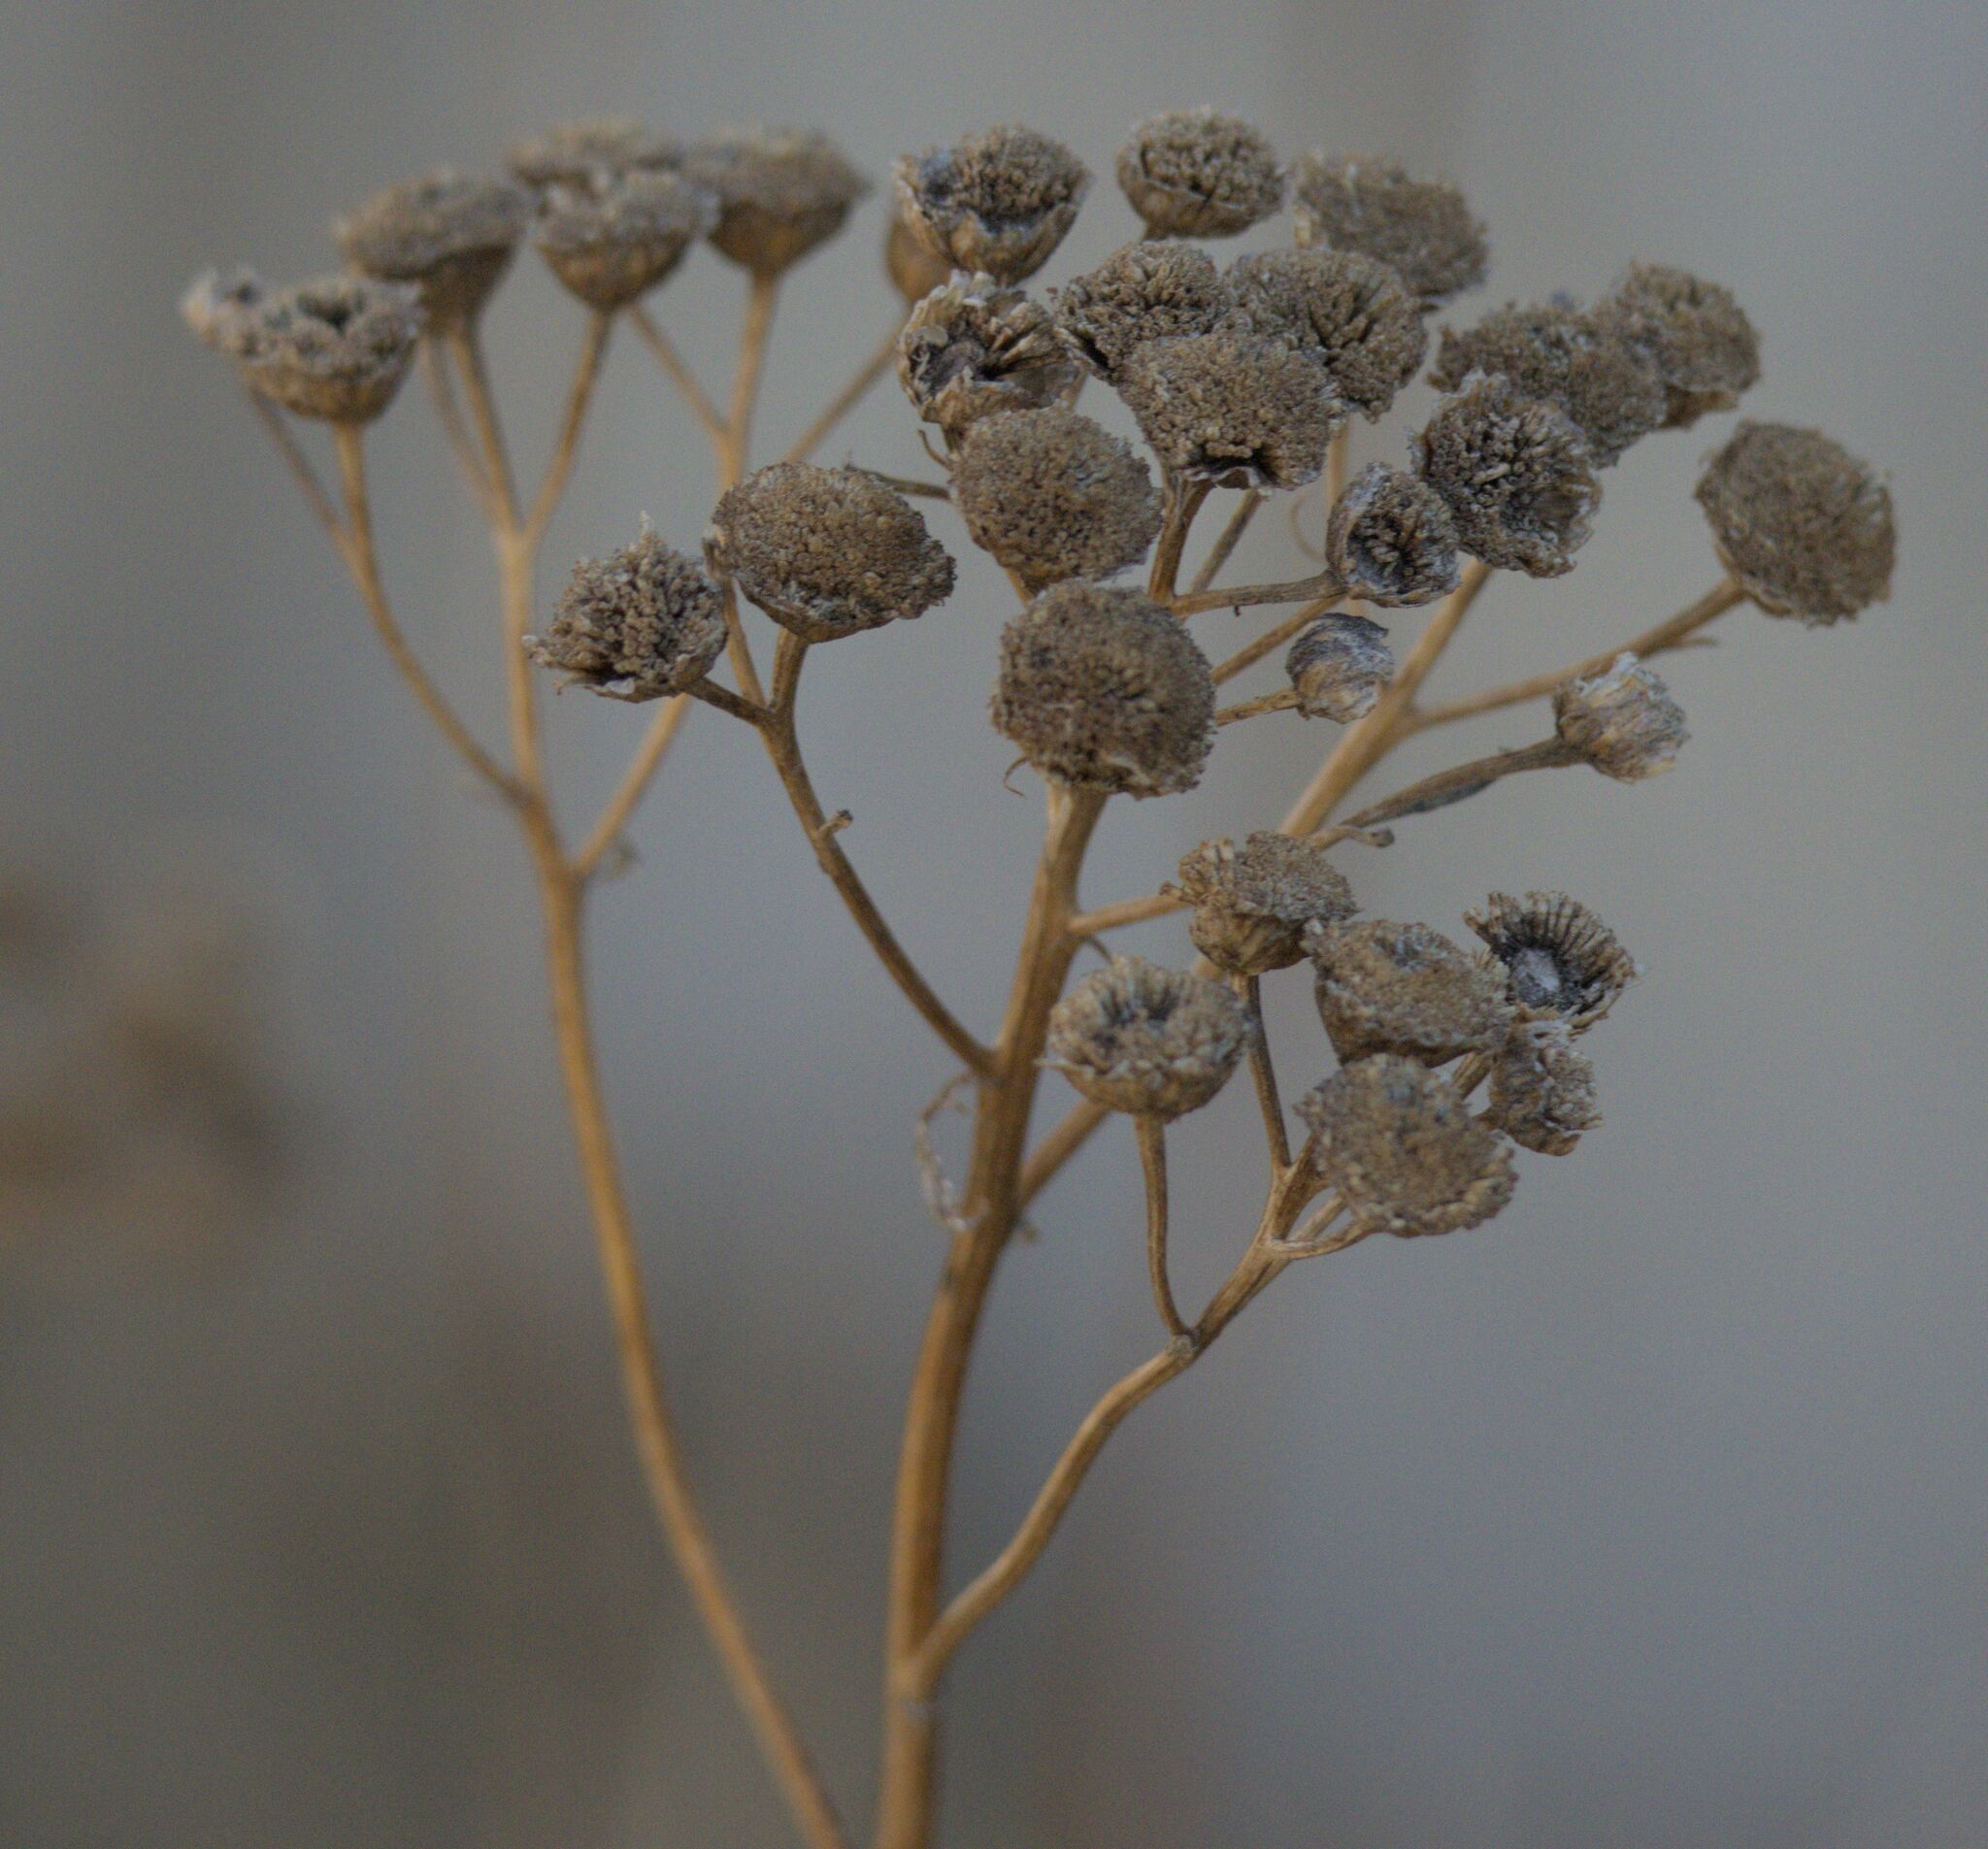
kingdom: Plantae
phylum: Tracheophyta
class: Magnoliopsida
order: Asterales
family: Asteraceae
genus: Tanacetum
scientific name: Tanacetum vulgare
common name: Common tansy
